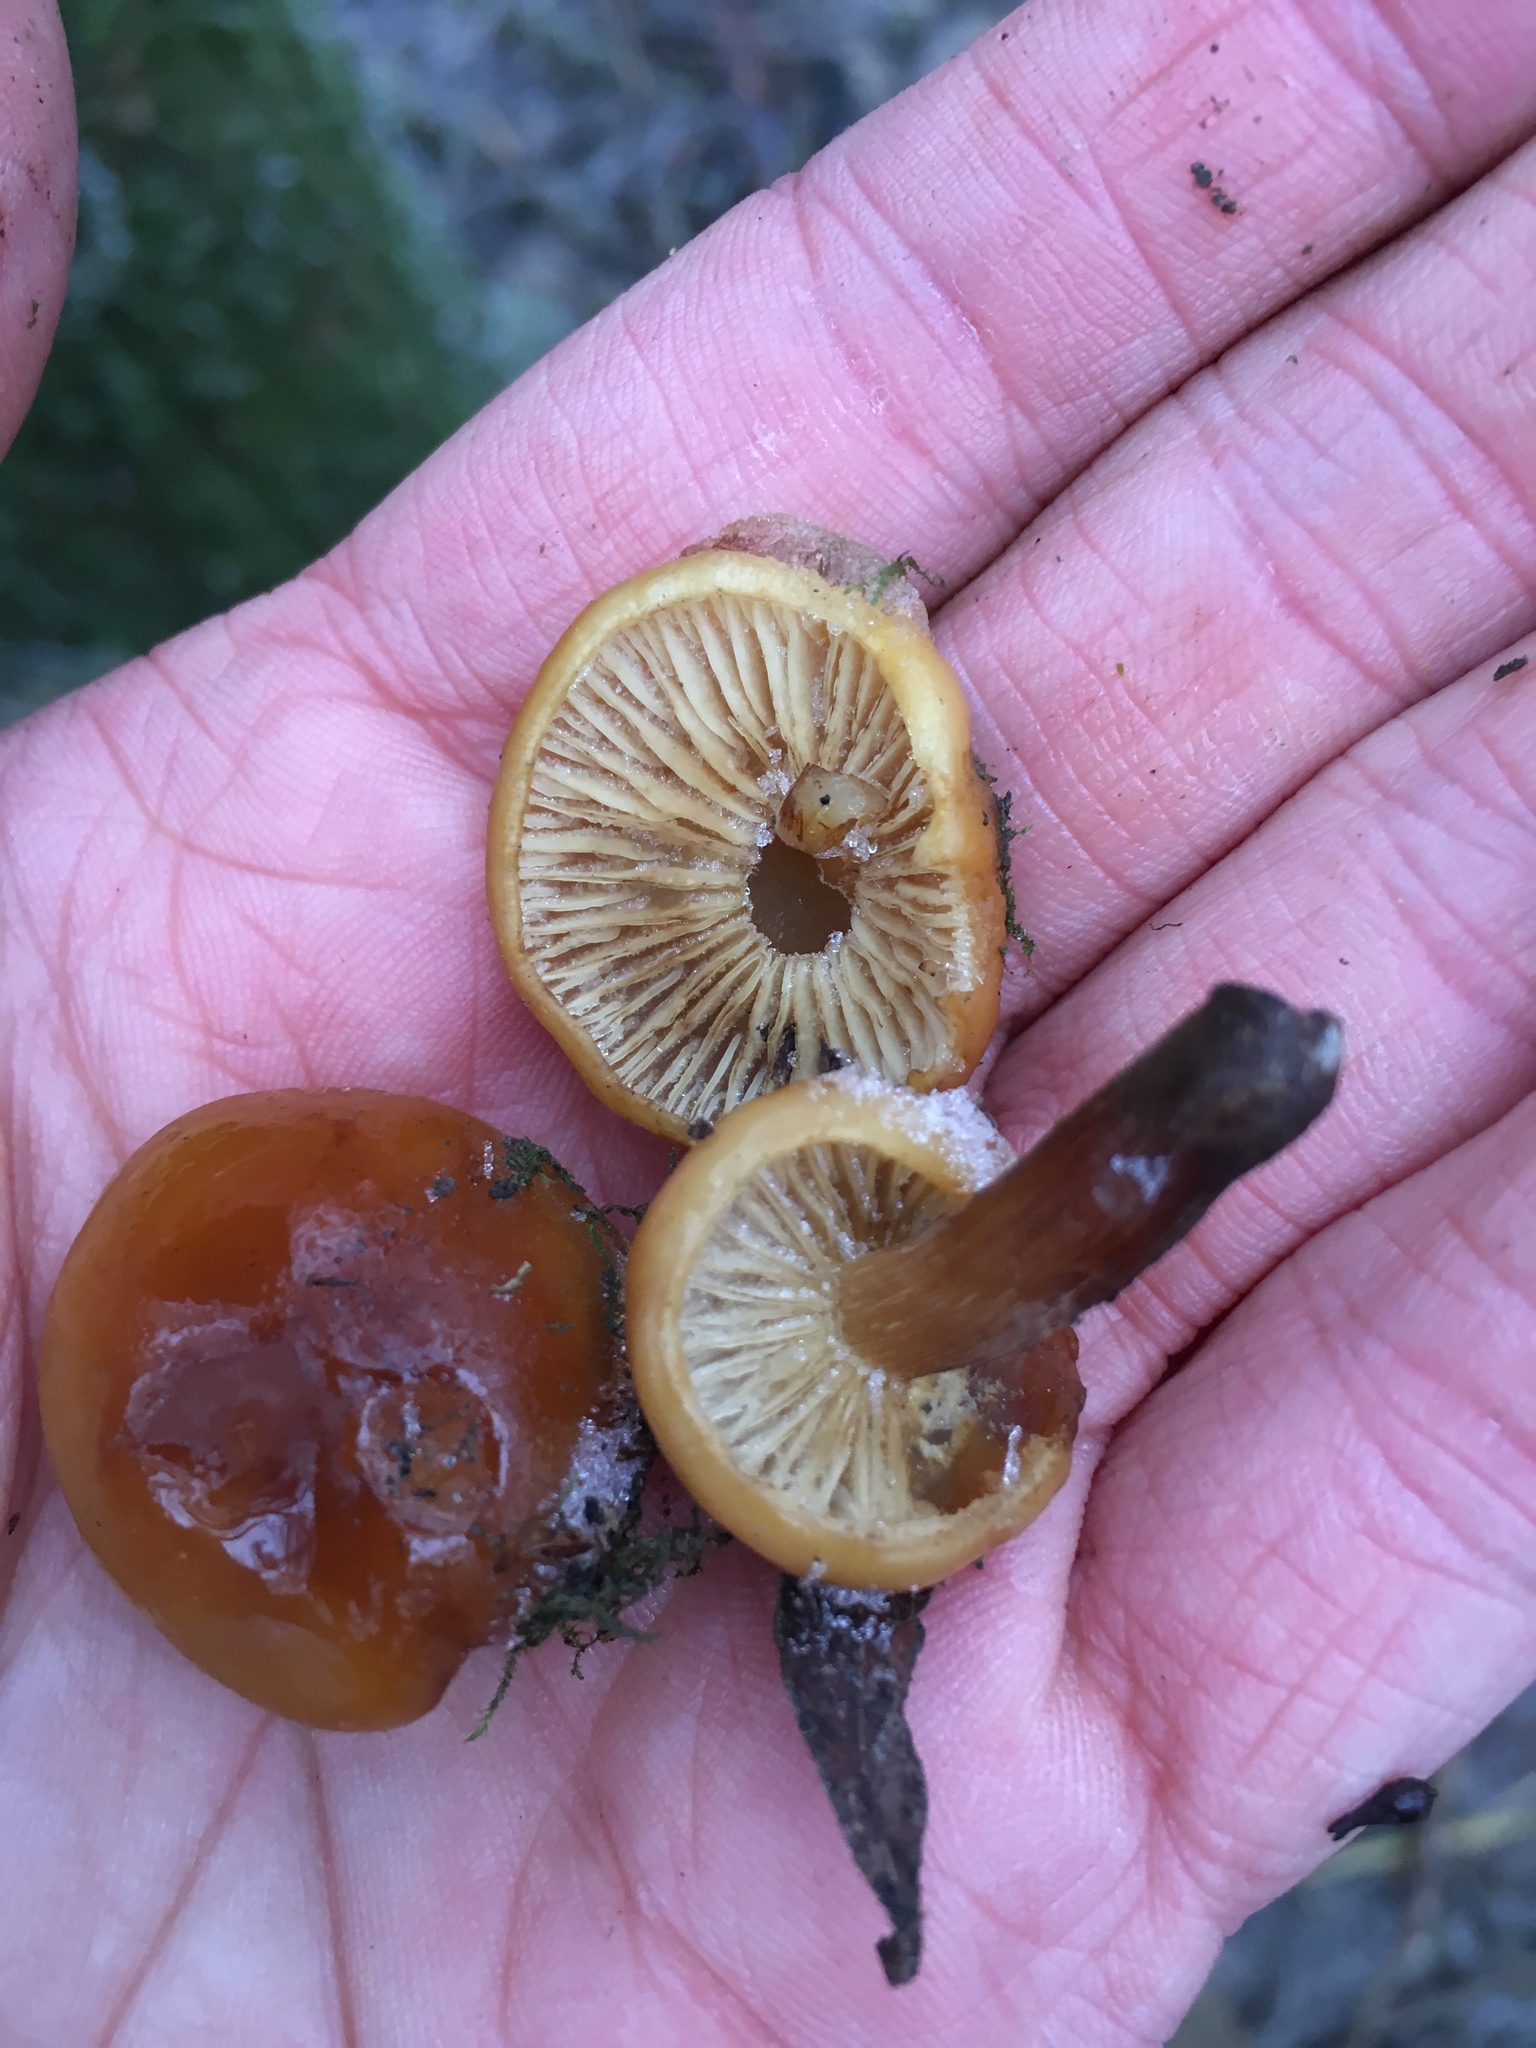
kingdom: Fungi
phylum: Basidiomycota
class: Agaricomycetes
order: Agaricales
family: Physalacriaceae
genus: Flammulina
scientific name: Flammulina
